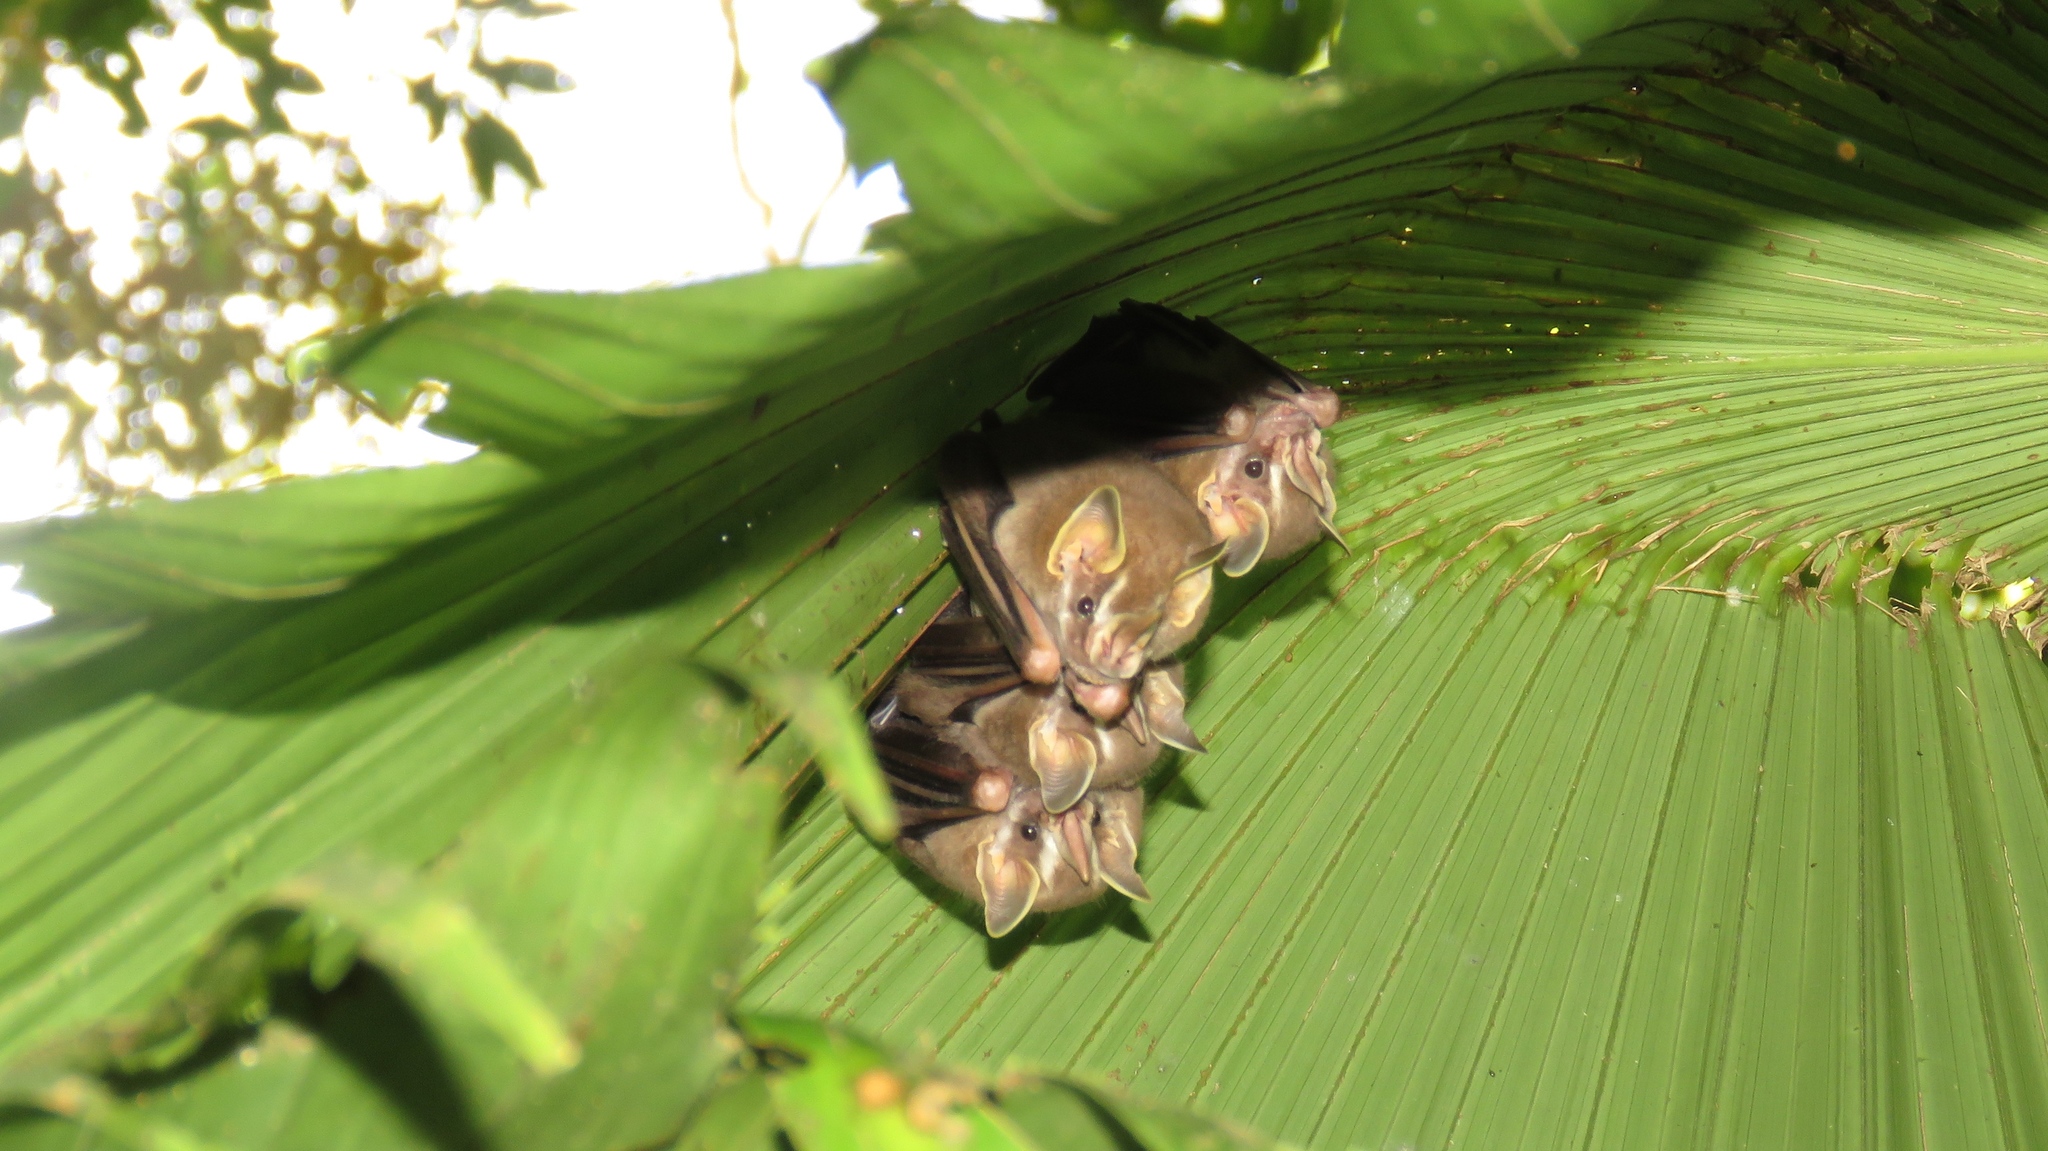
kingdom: Animalia
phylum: Chordata
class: Mammalia
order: Chiroptera
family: Phyllostomidae
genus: Artibeus
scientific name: Artibeus phaeotis
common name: Pygmy fruit-eating bat
